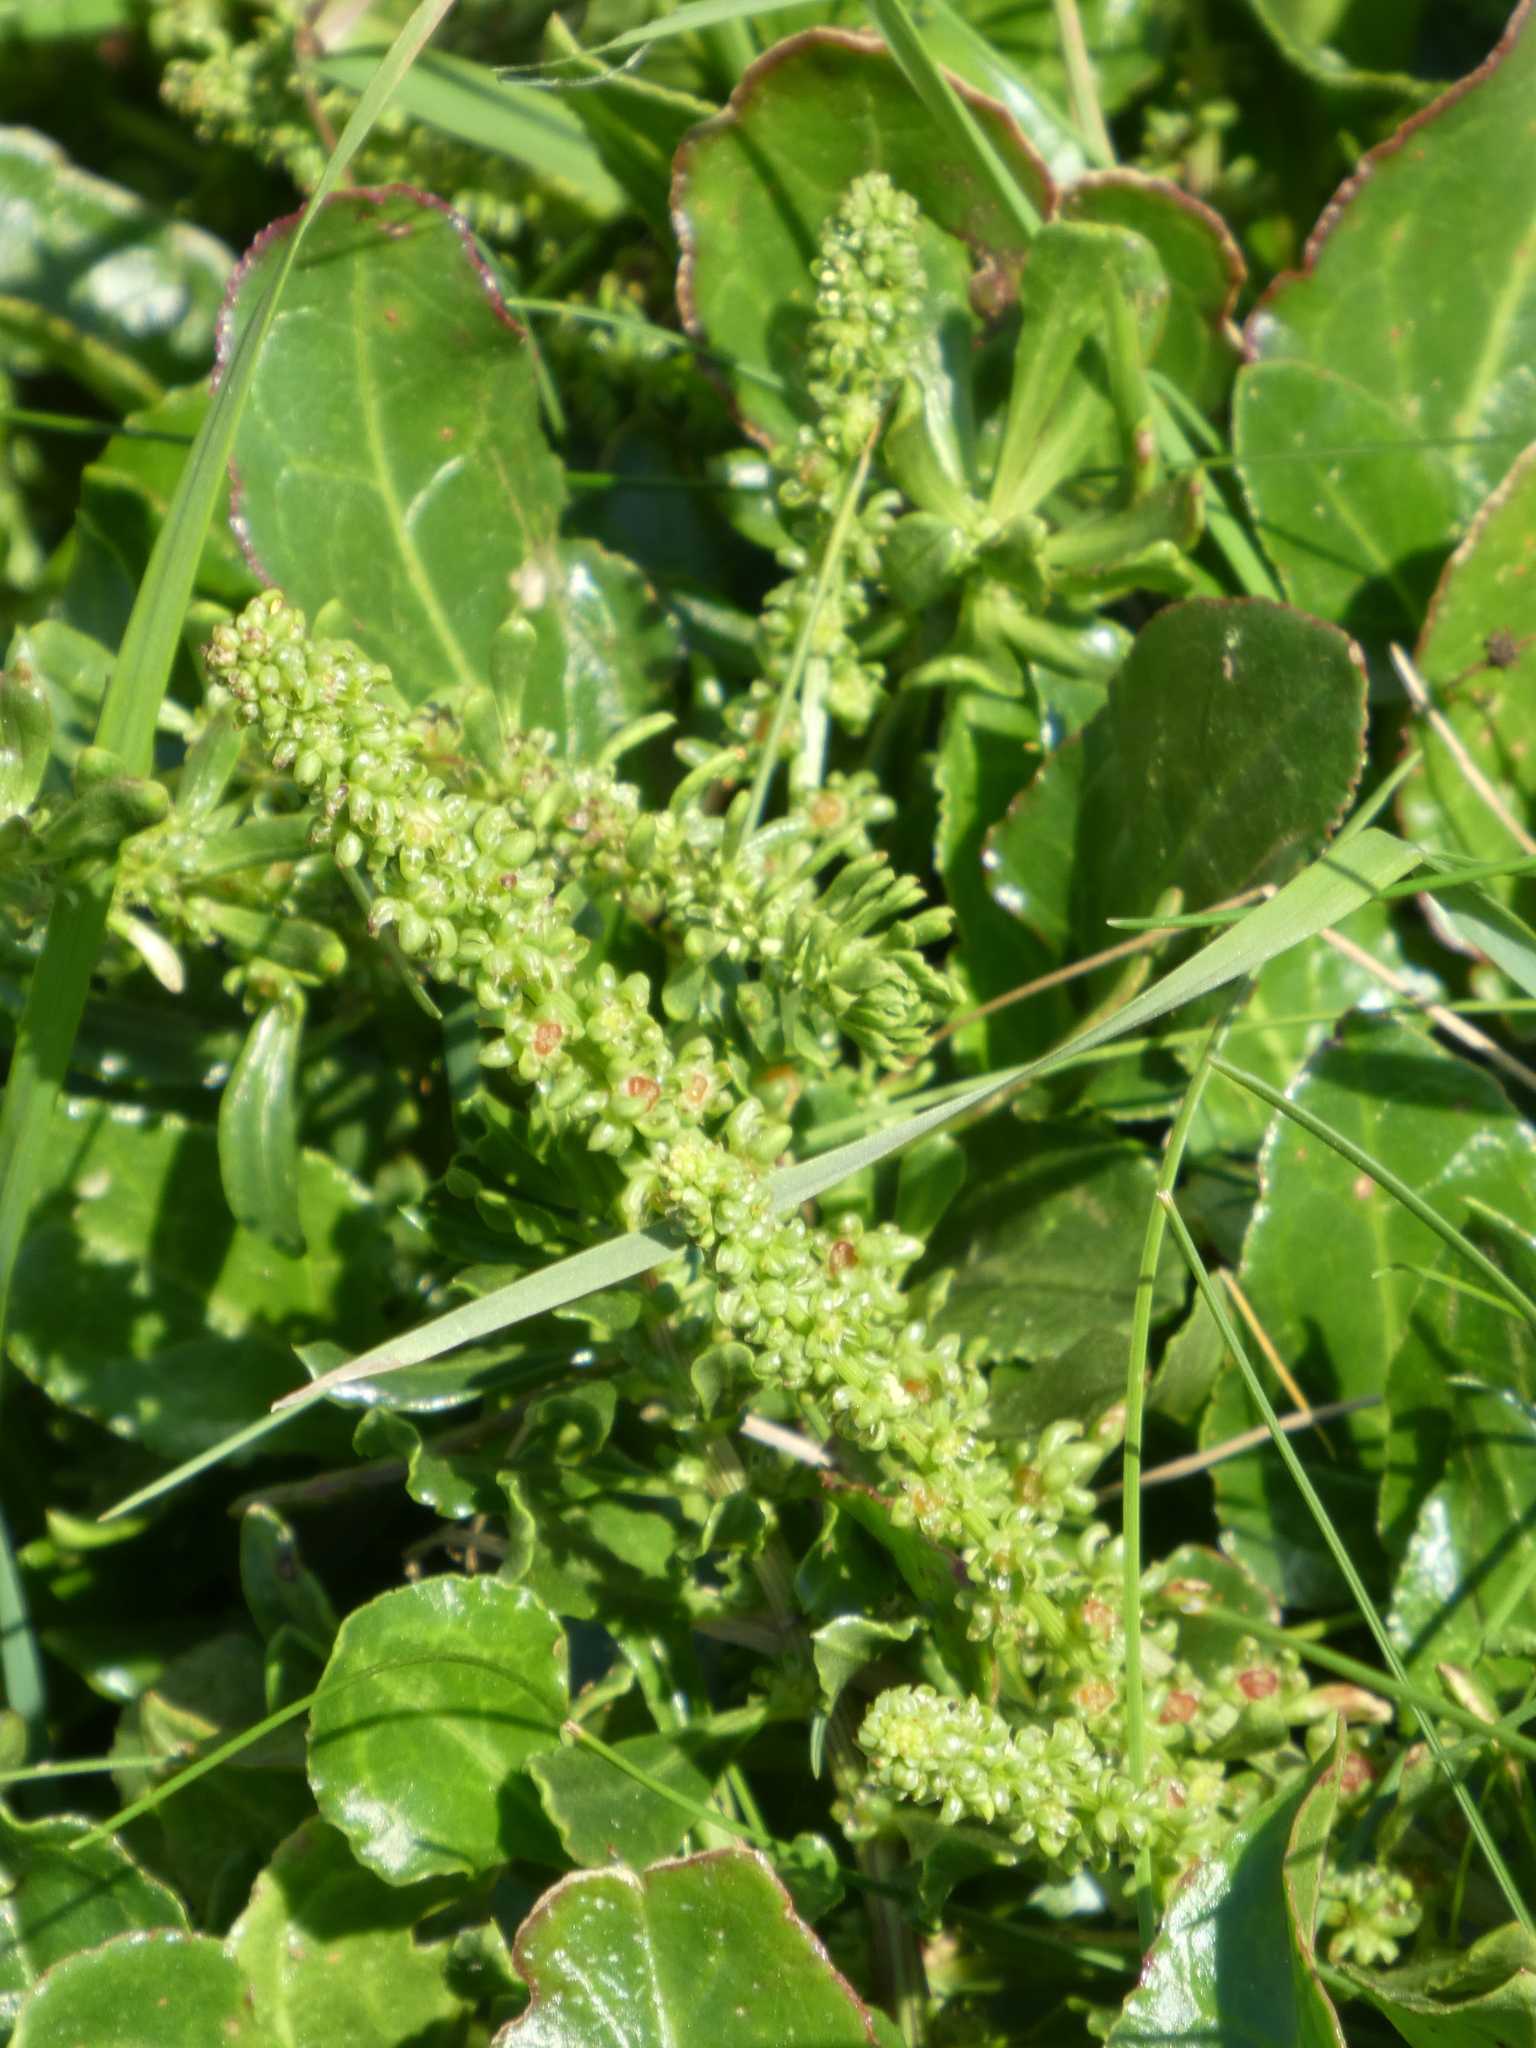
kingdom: Plantae
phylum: Tracheophyta
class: Magnoliopsida
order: Caryophyllales
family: Amaranthaceae
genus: Beta
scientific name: Beta vulgaris
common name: Beet
